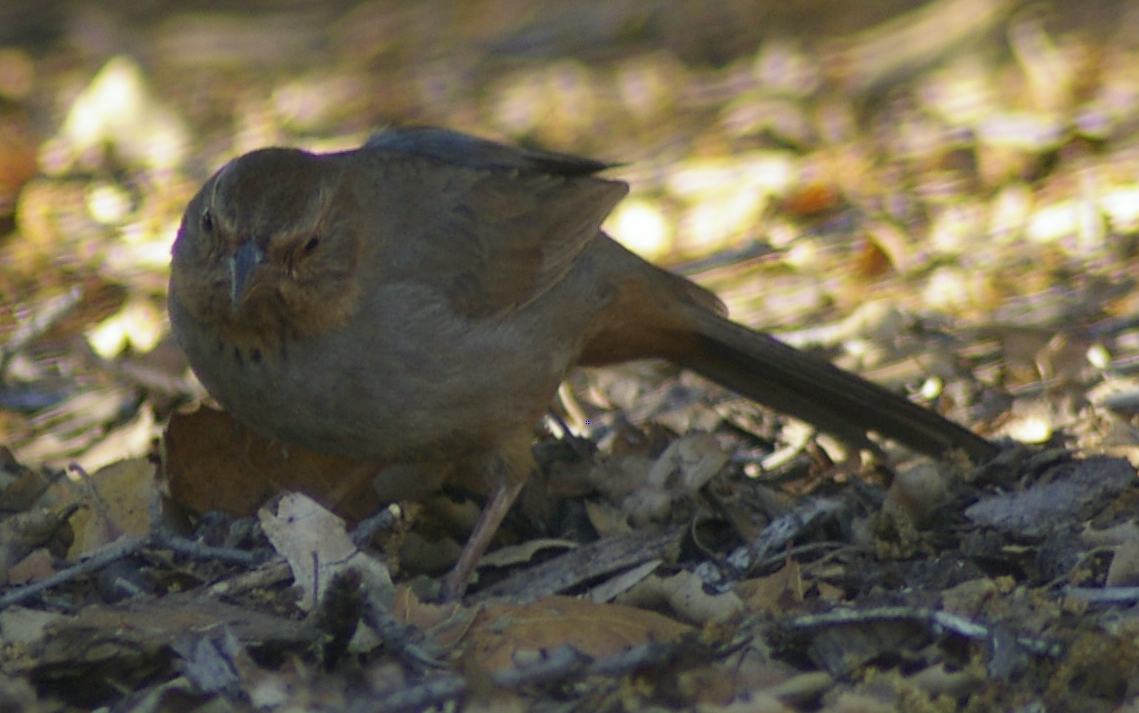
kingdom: Animalia
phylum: Chordata
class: Aves
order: Passeriformes
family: Passerellidae
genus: Melozone
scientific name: Melozone crissalis
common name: California towhee
